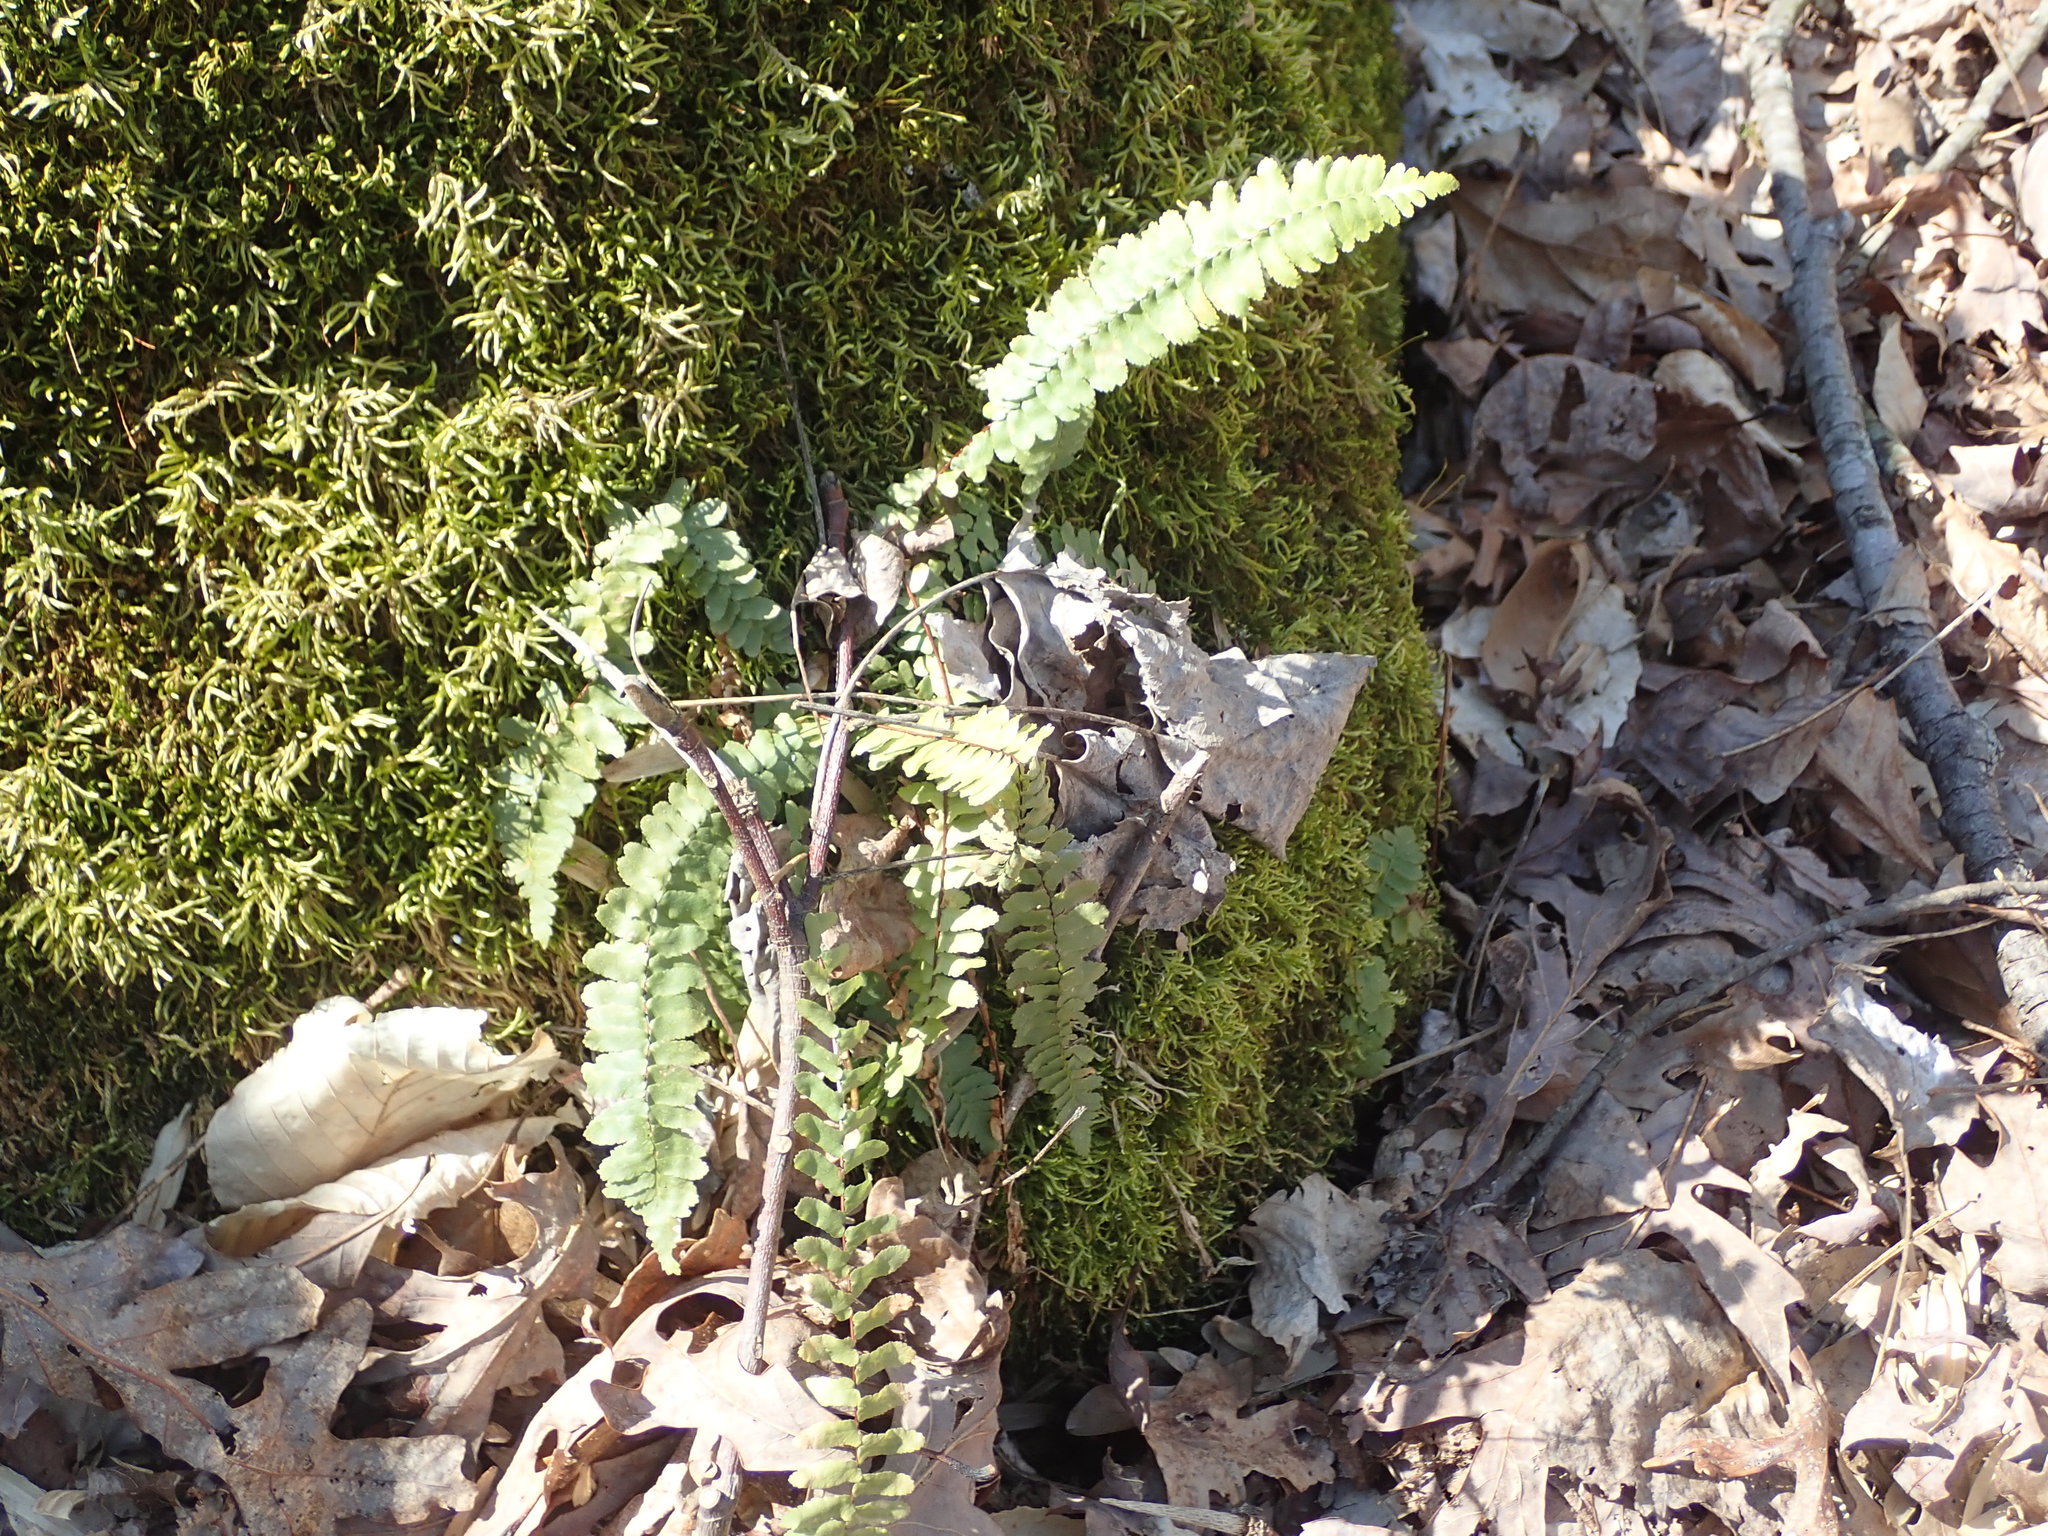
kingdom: Plantae
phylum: Tracheophyta
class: Polypodiopsida
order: Polypodiales
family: Aspleniaceae
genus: Asplenium
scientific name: Asplenium platyneuron
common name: Ebony spleenwort
